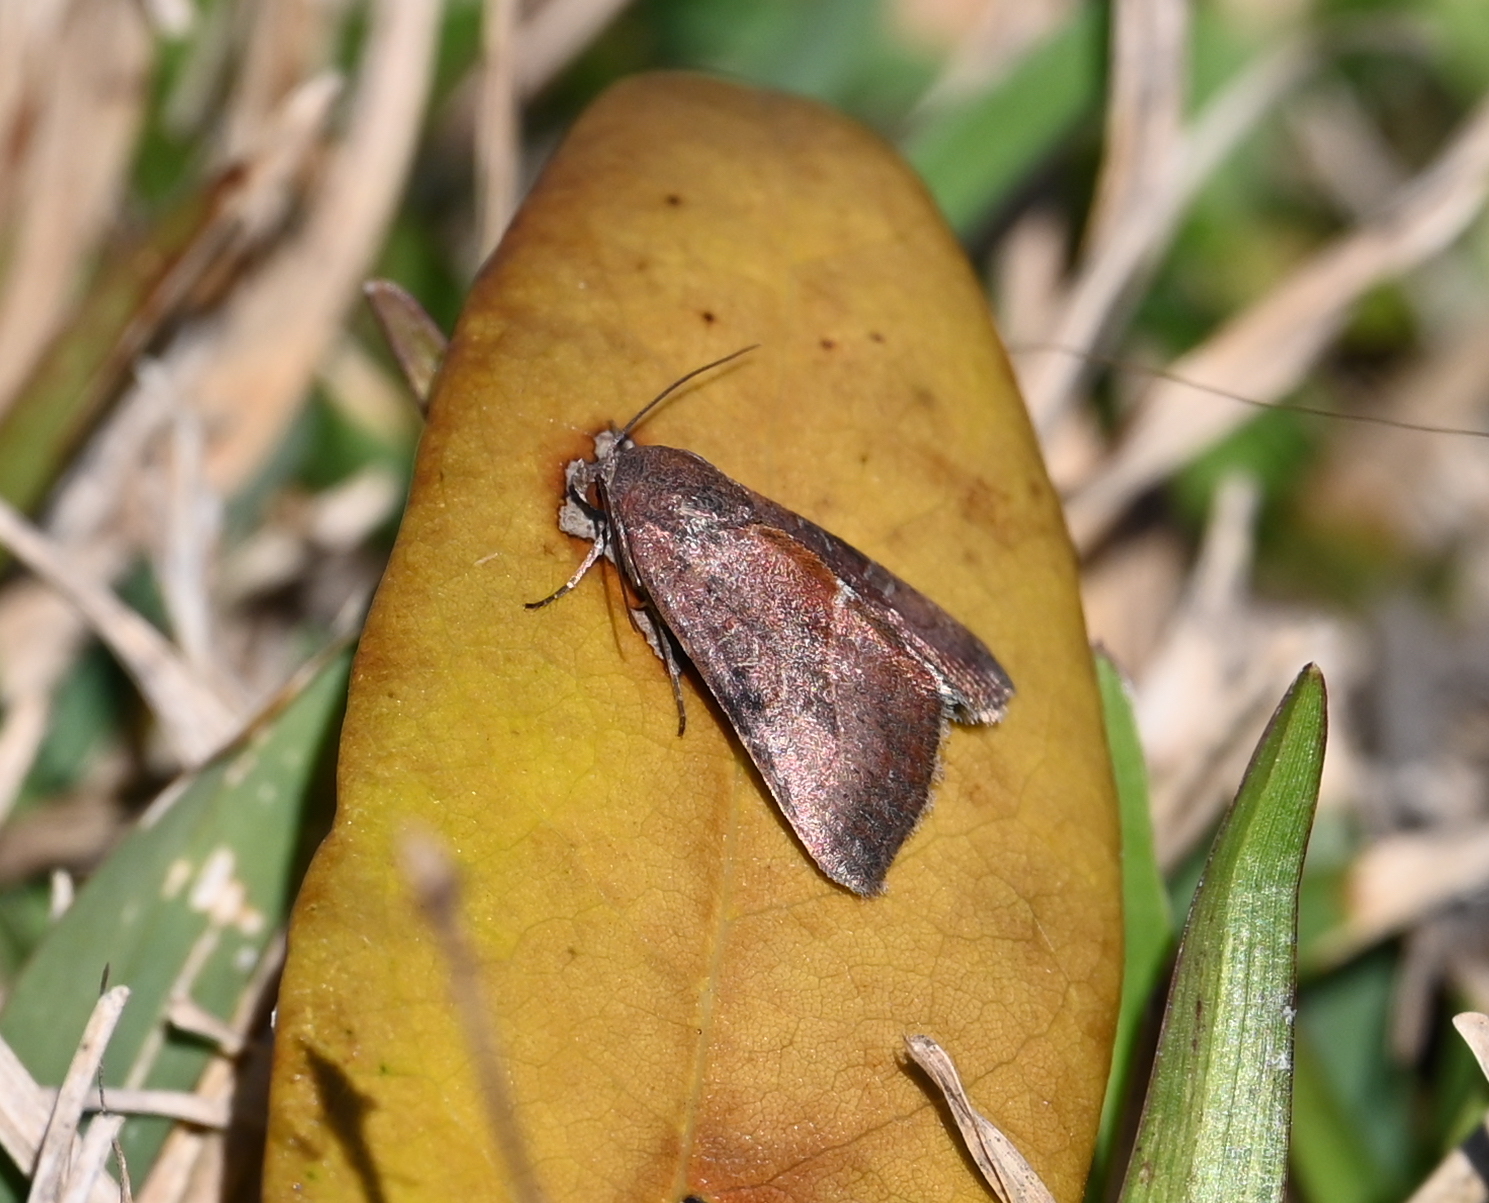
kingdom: Animalia
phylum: Arthropoda
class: Insecta
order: Lepidoptera
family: Noctuidae
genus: Galgula
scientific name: Galgula partita
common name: Wedgeling
